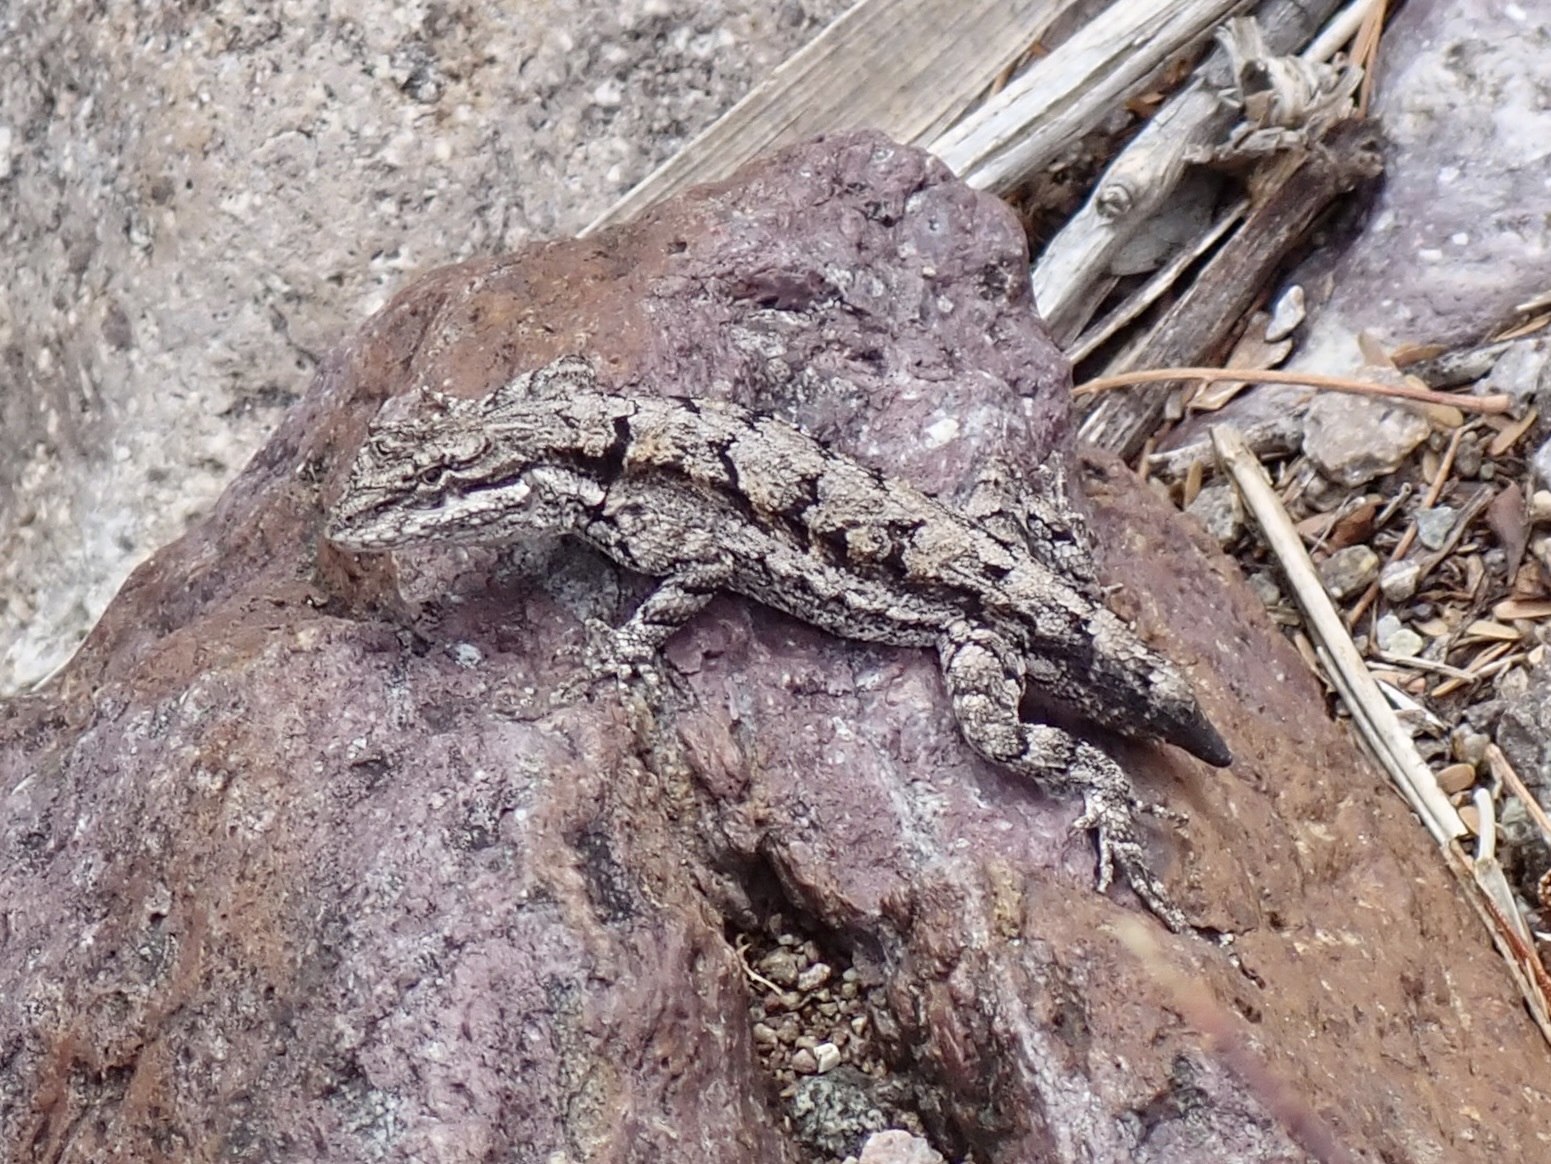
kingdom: Animalia
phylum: Chordata
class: Squamata
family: Phrynosomatidae
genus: Urosaurus
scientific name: Urosaurus ornatus
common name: Ornate tree lizard
